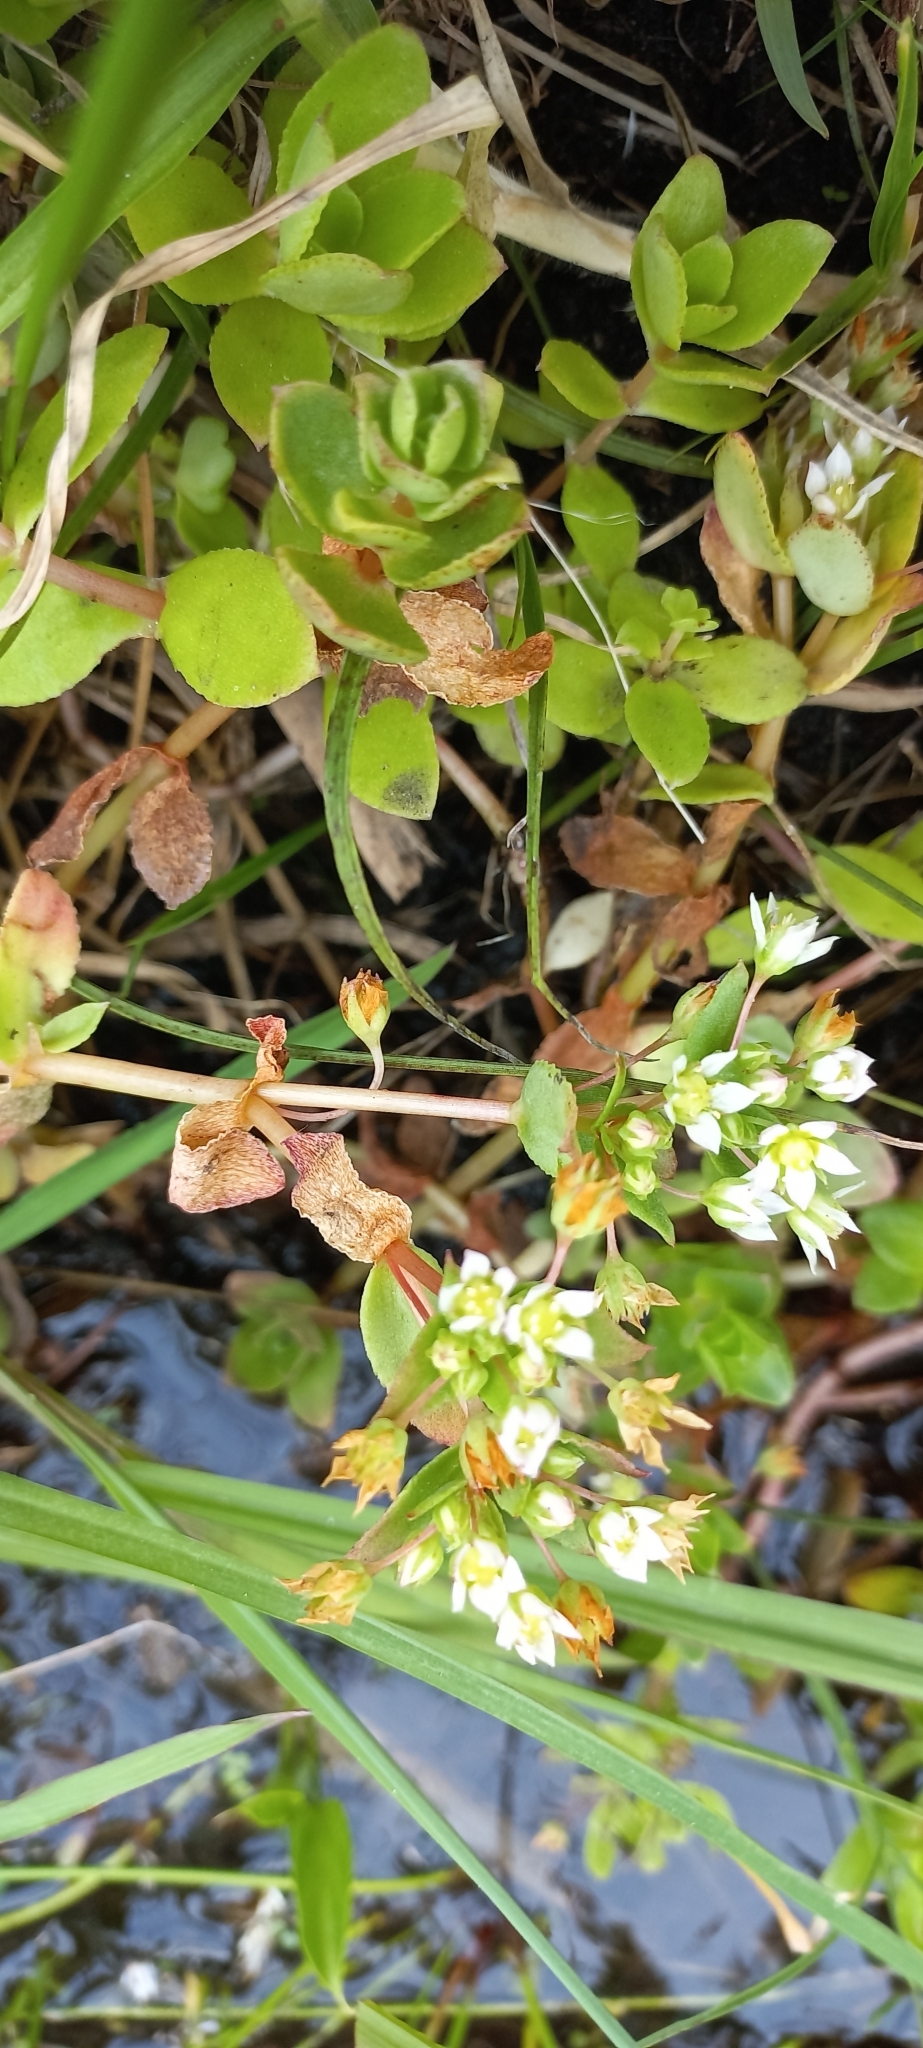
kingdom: Plantae
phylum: Tracheophyta
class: Magnoliopsida
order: Saxifragales
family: Crassulaceae
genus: Crassula
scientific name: Crassula pellucida
